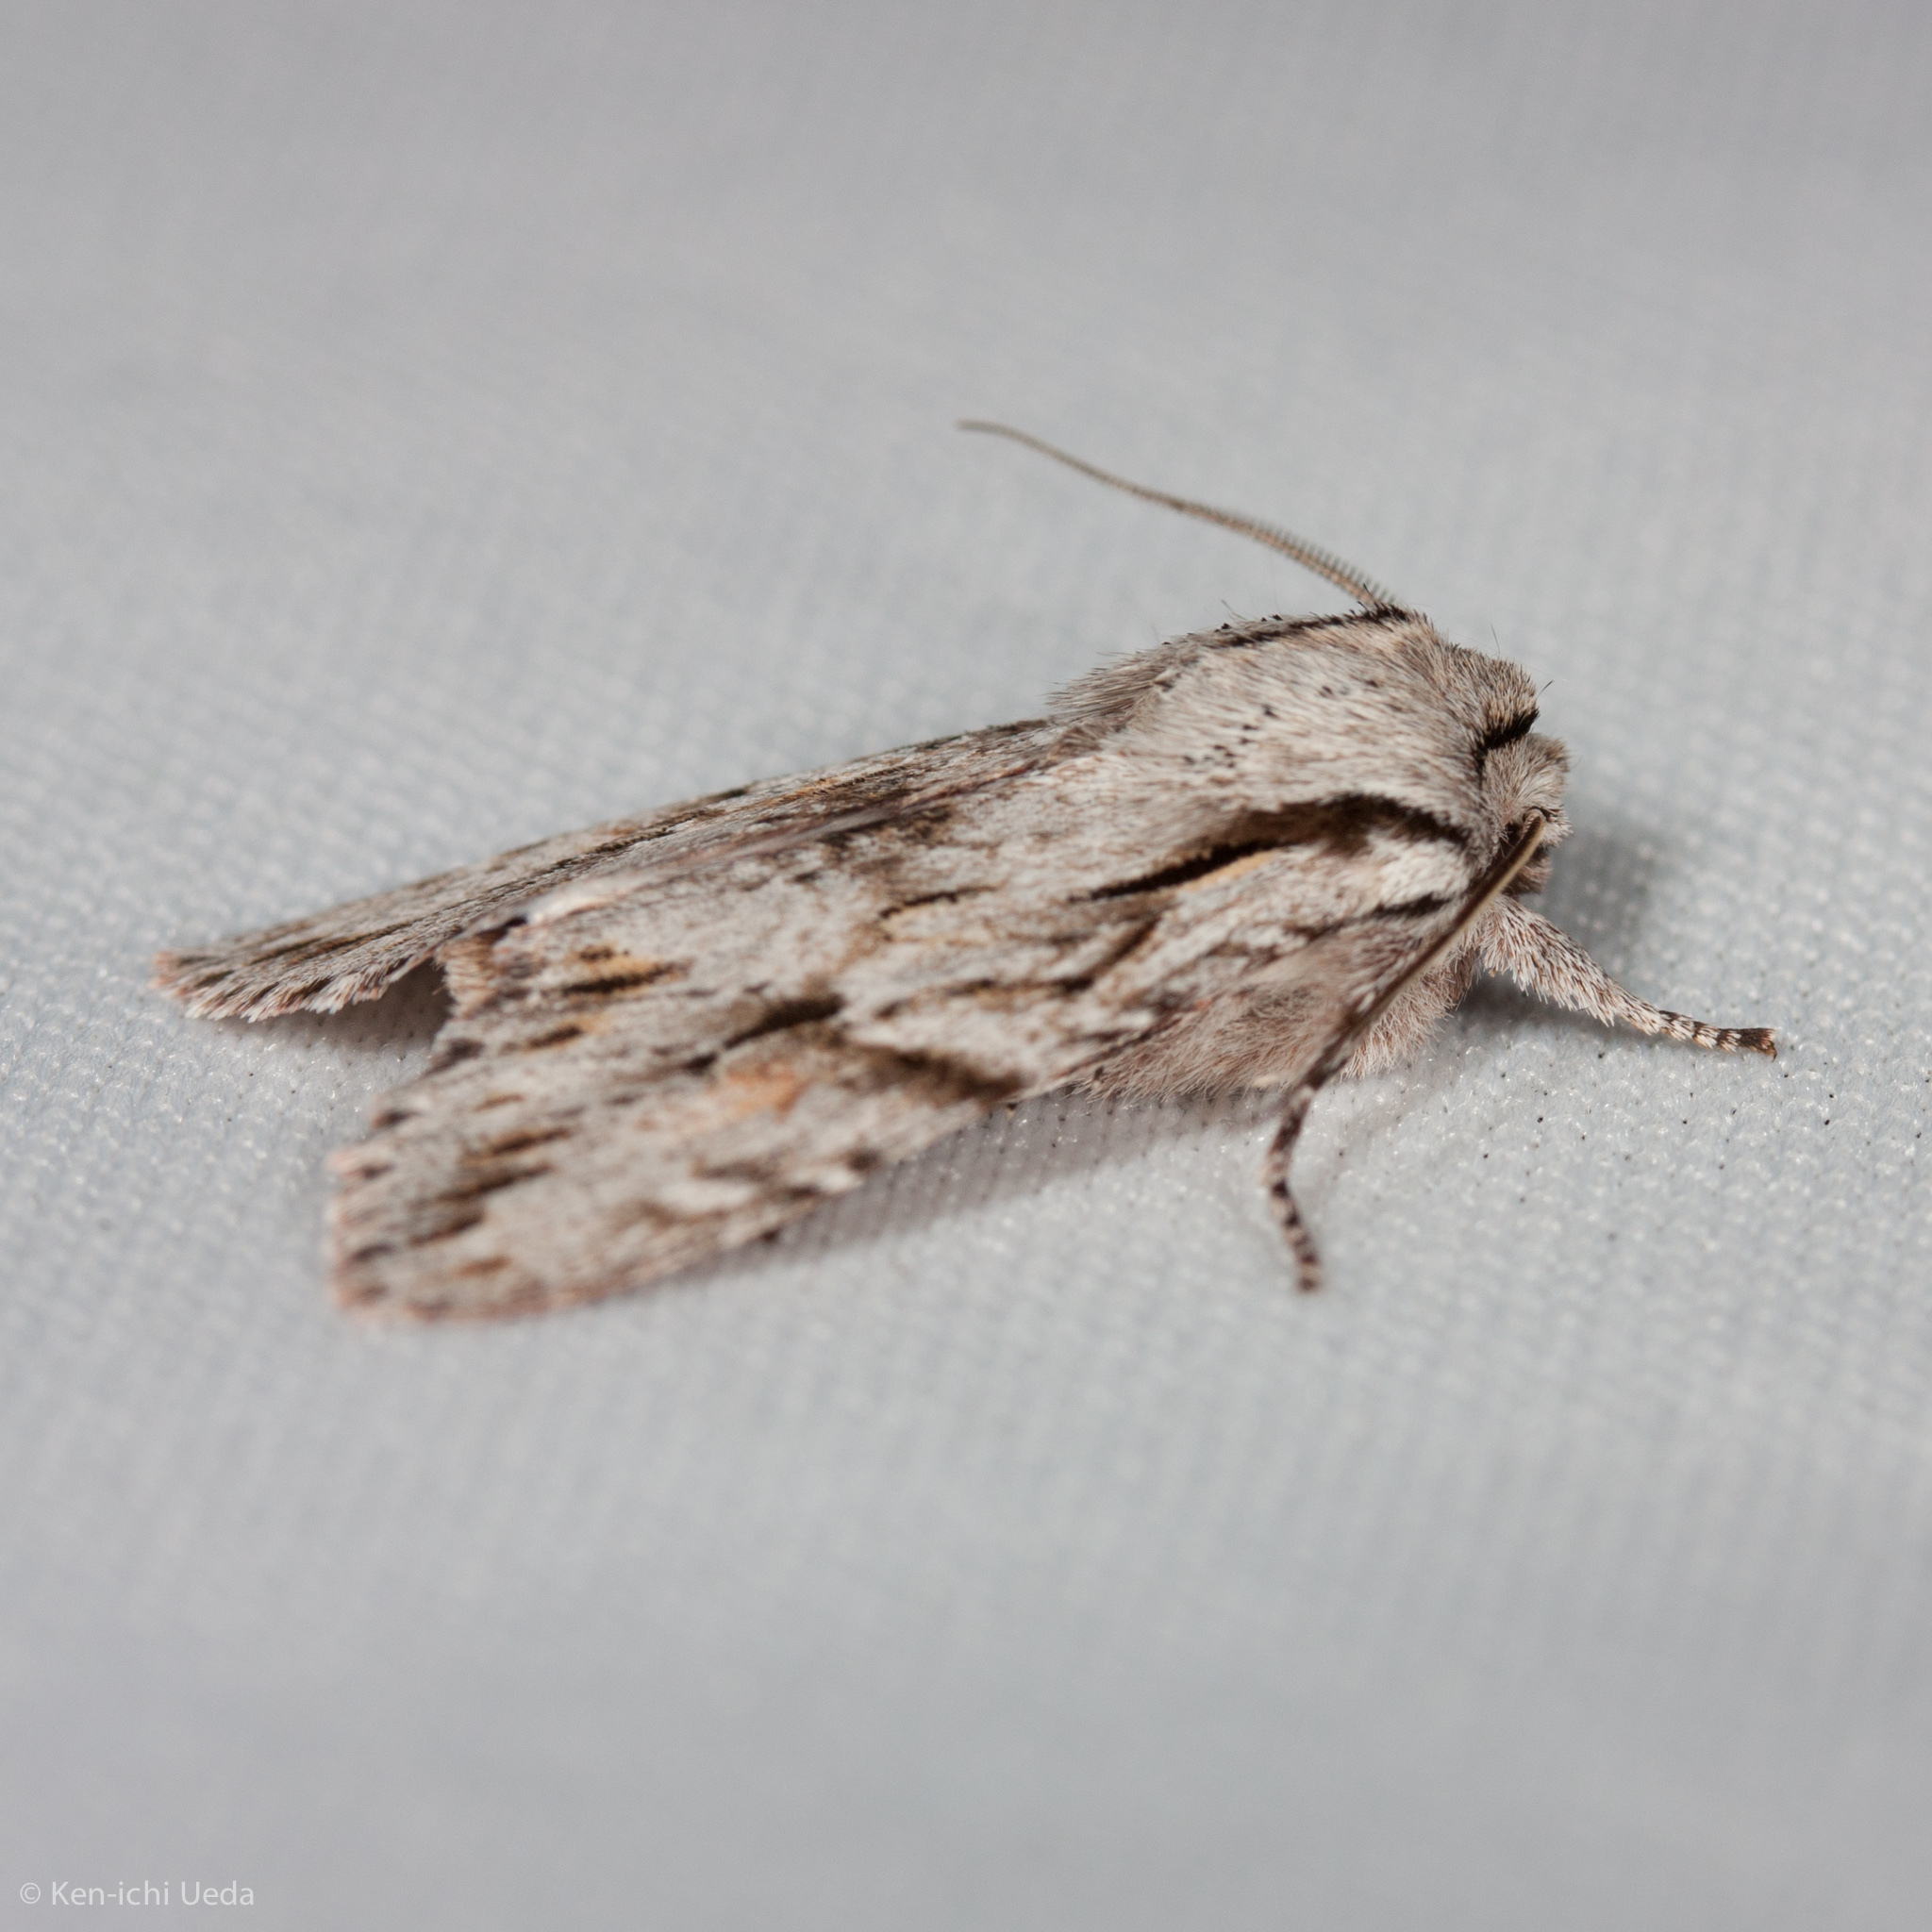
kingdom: Animalia
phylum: Arthropoda
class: Insecta
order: Lepidoptera
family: Noctuidae
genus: Egira
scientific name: Egira crucialis
